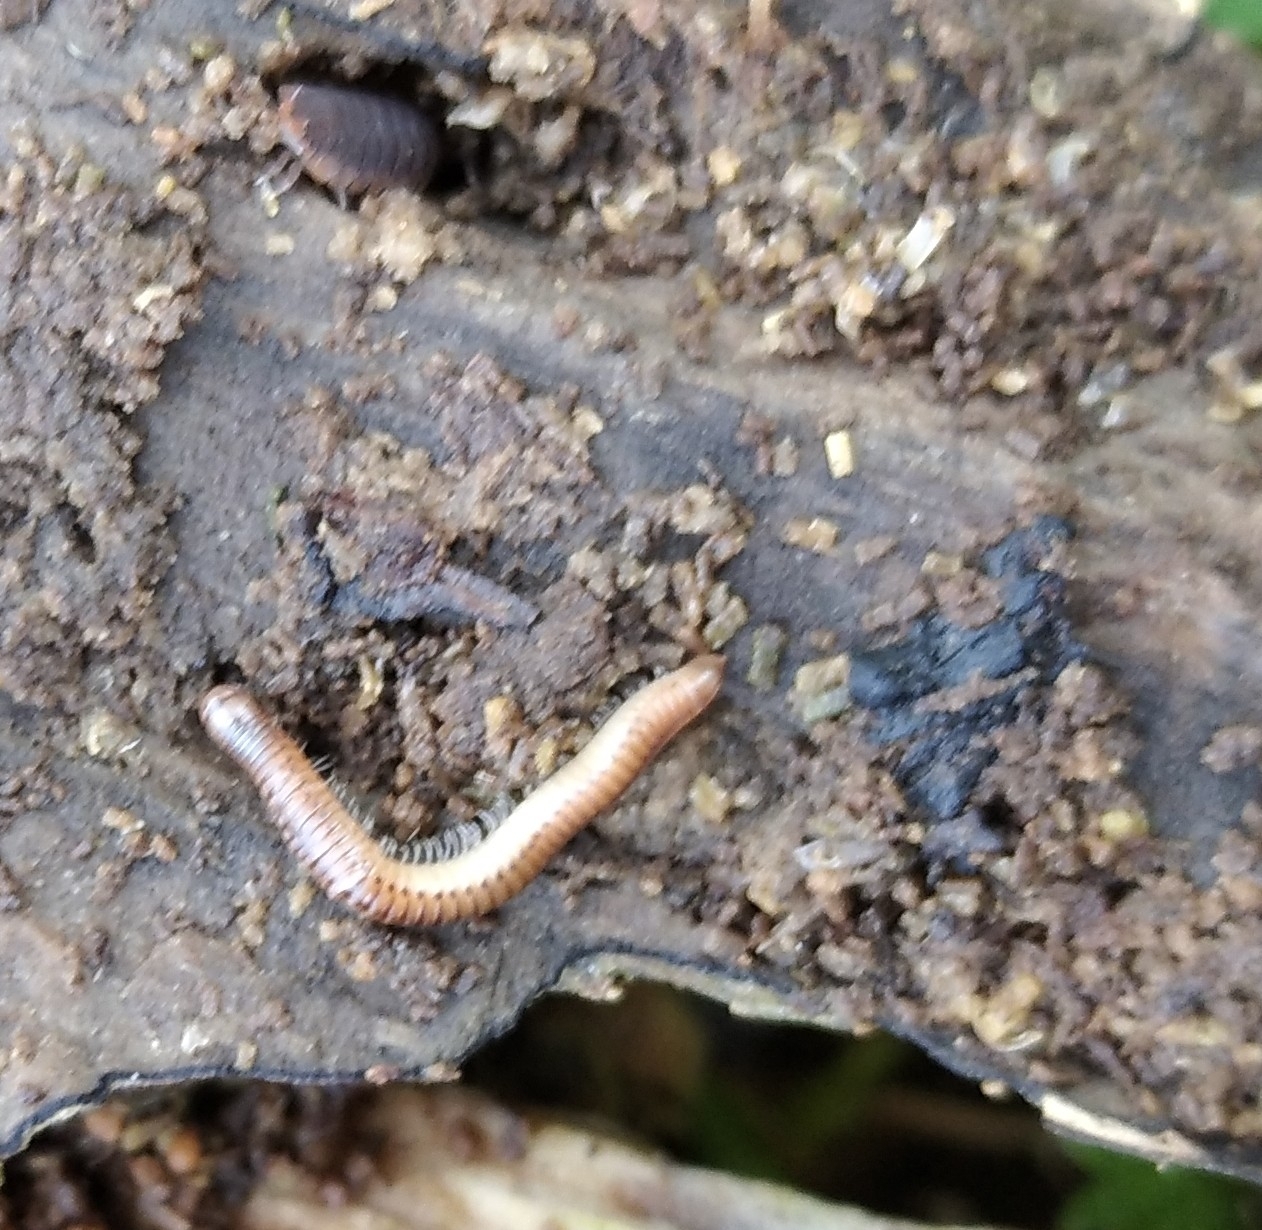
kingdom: Animalia
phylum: Arthropoda
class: Diplopoda
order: Julida
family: Julidae
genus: Cylindroiulus
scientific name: Cylindroiulus punctatus
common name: Blunt-tailed millipede
